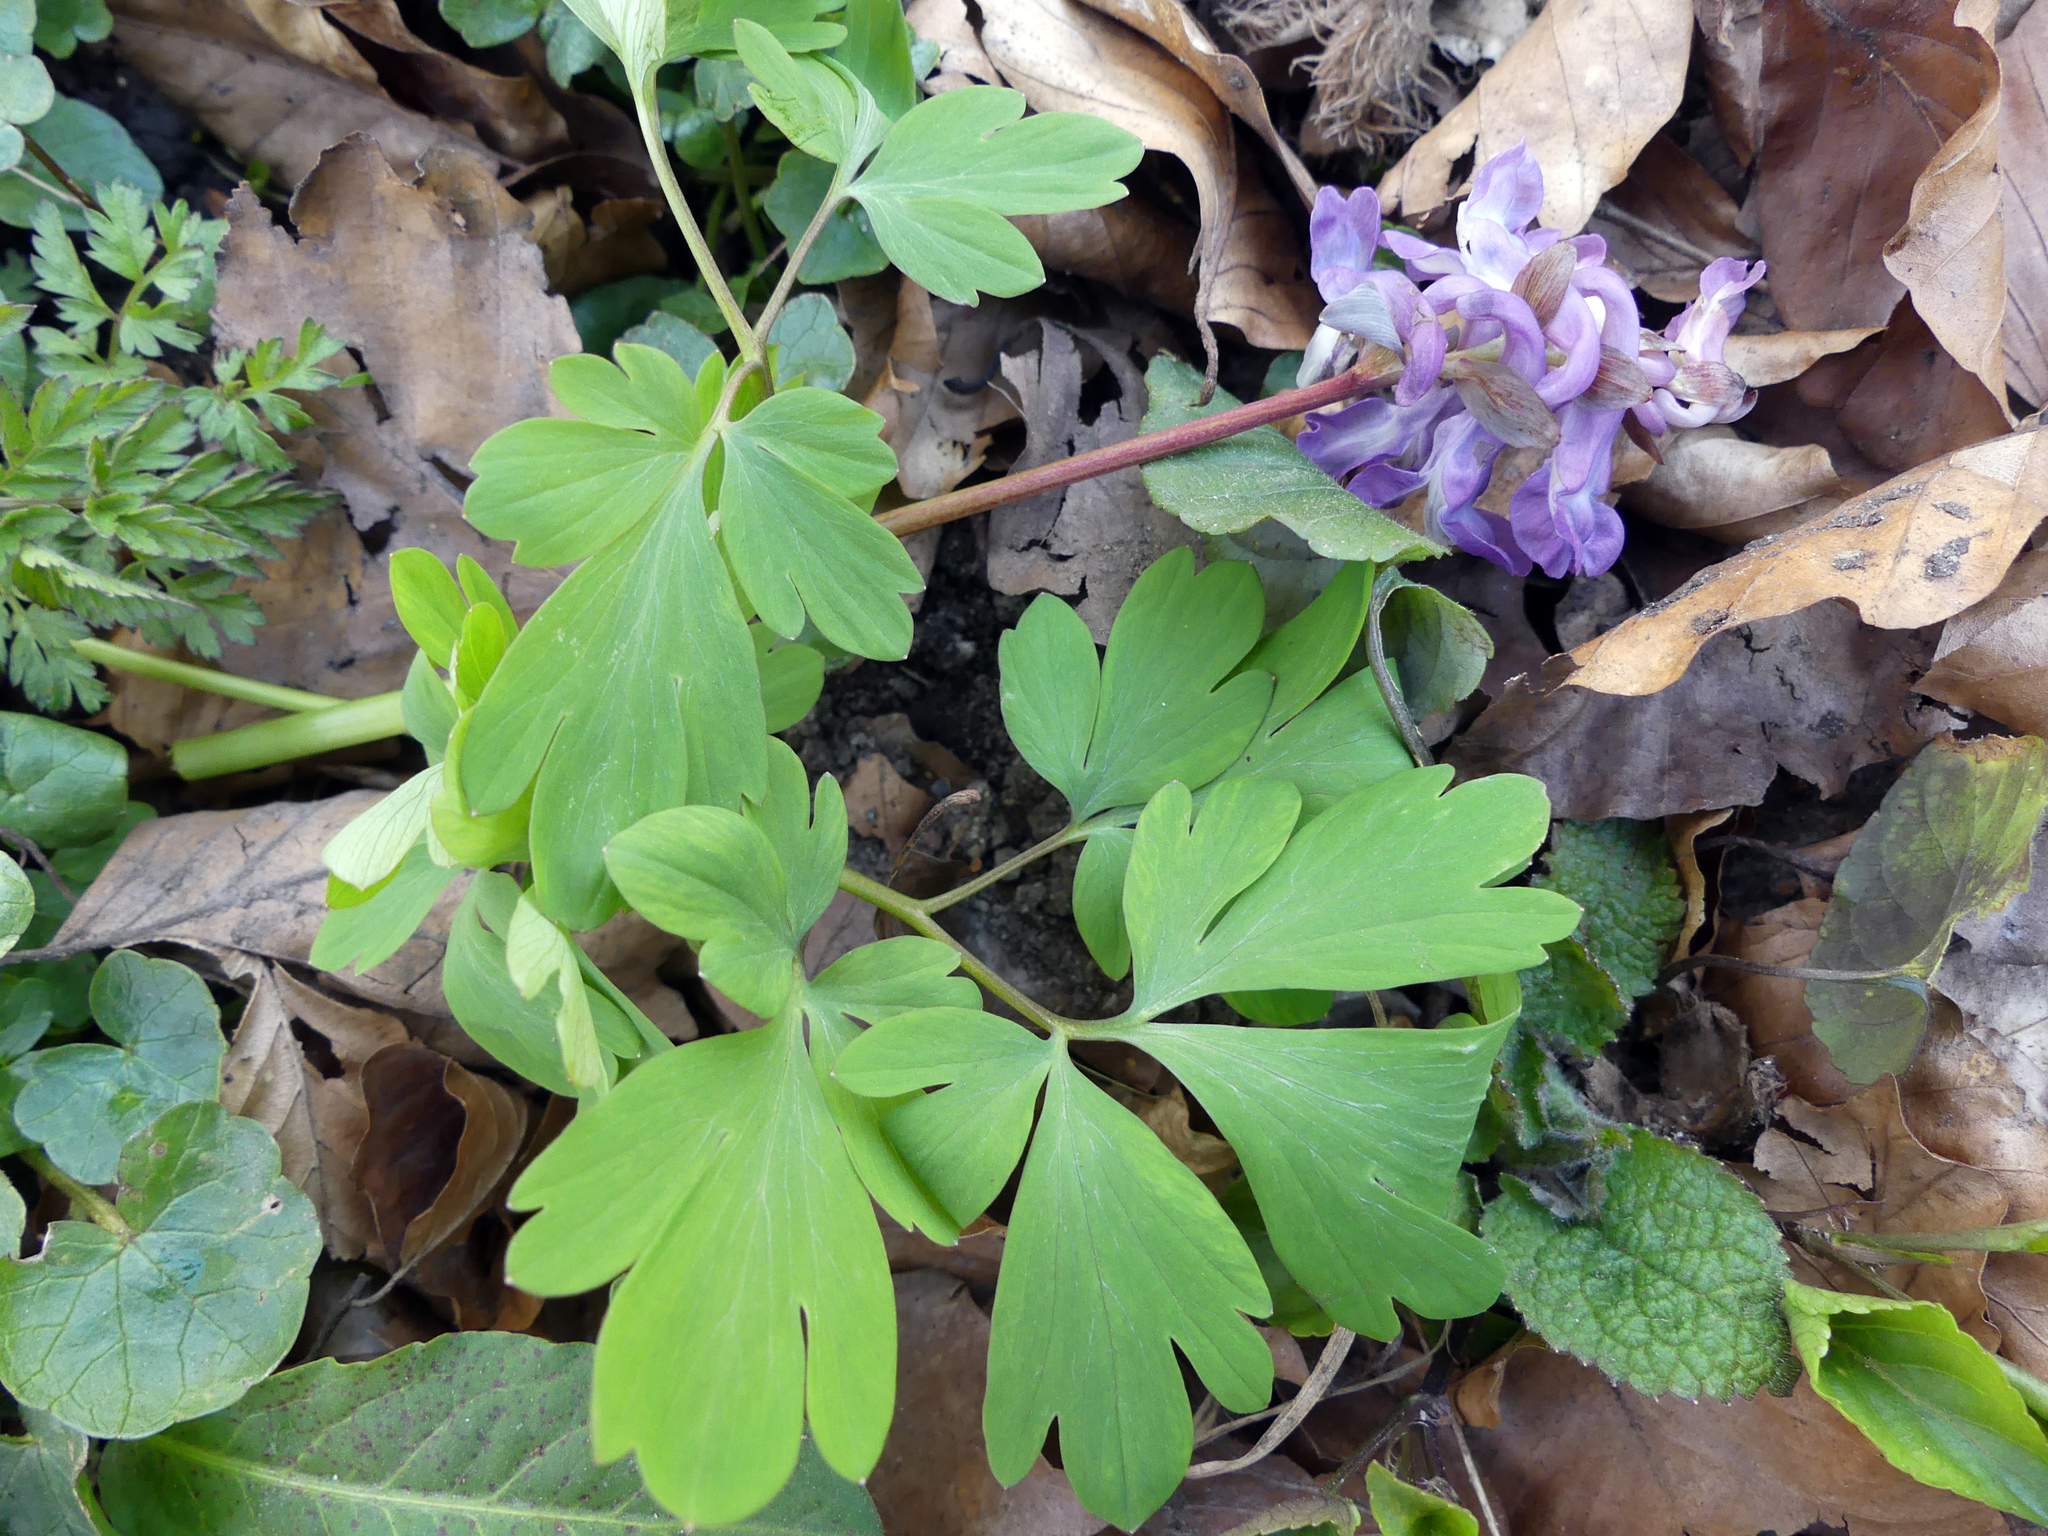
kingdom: Plantae
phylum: Tracheophyta
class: Magnoliopsida
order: Ranunculales
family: Papaveraceae
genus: Corydalis
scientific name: Corydalis cava
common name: Hollowroot
